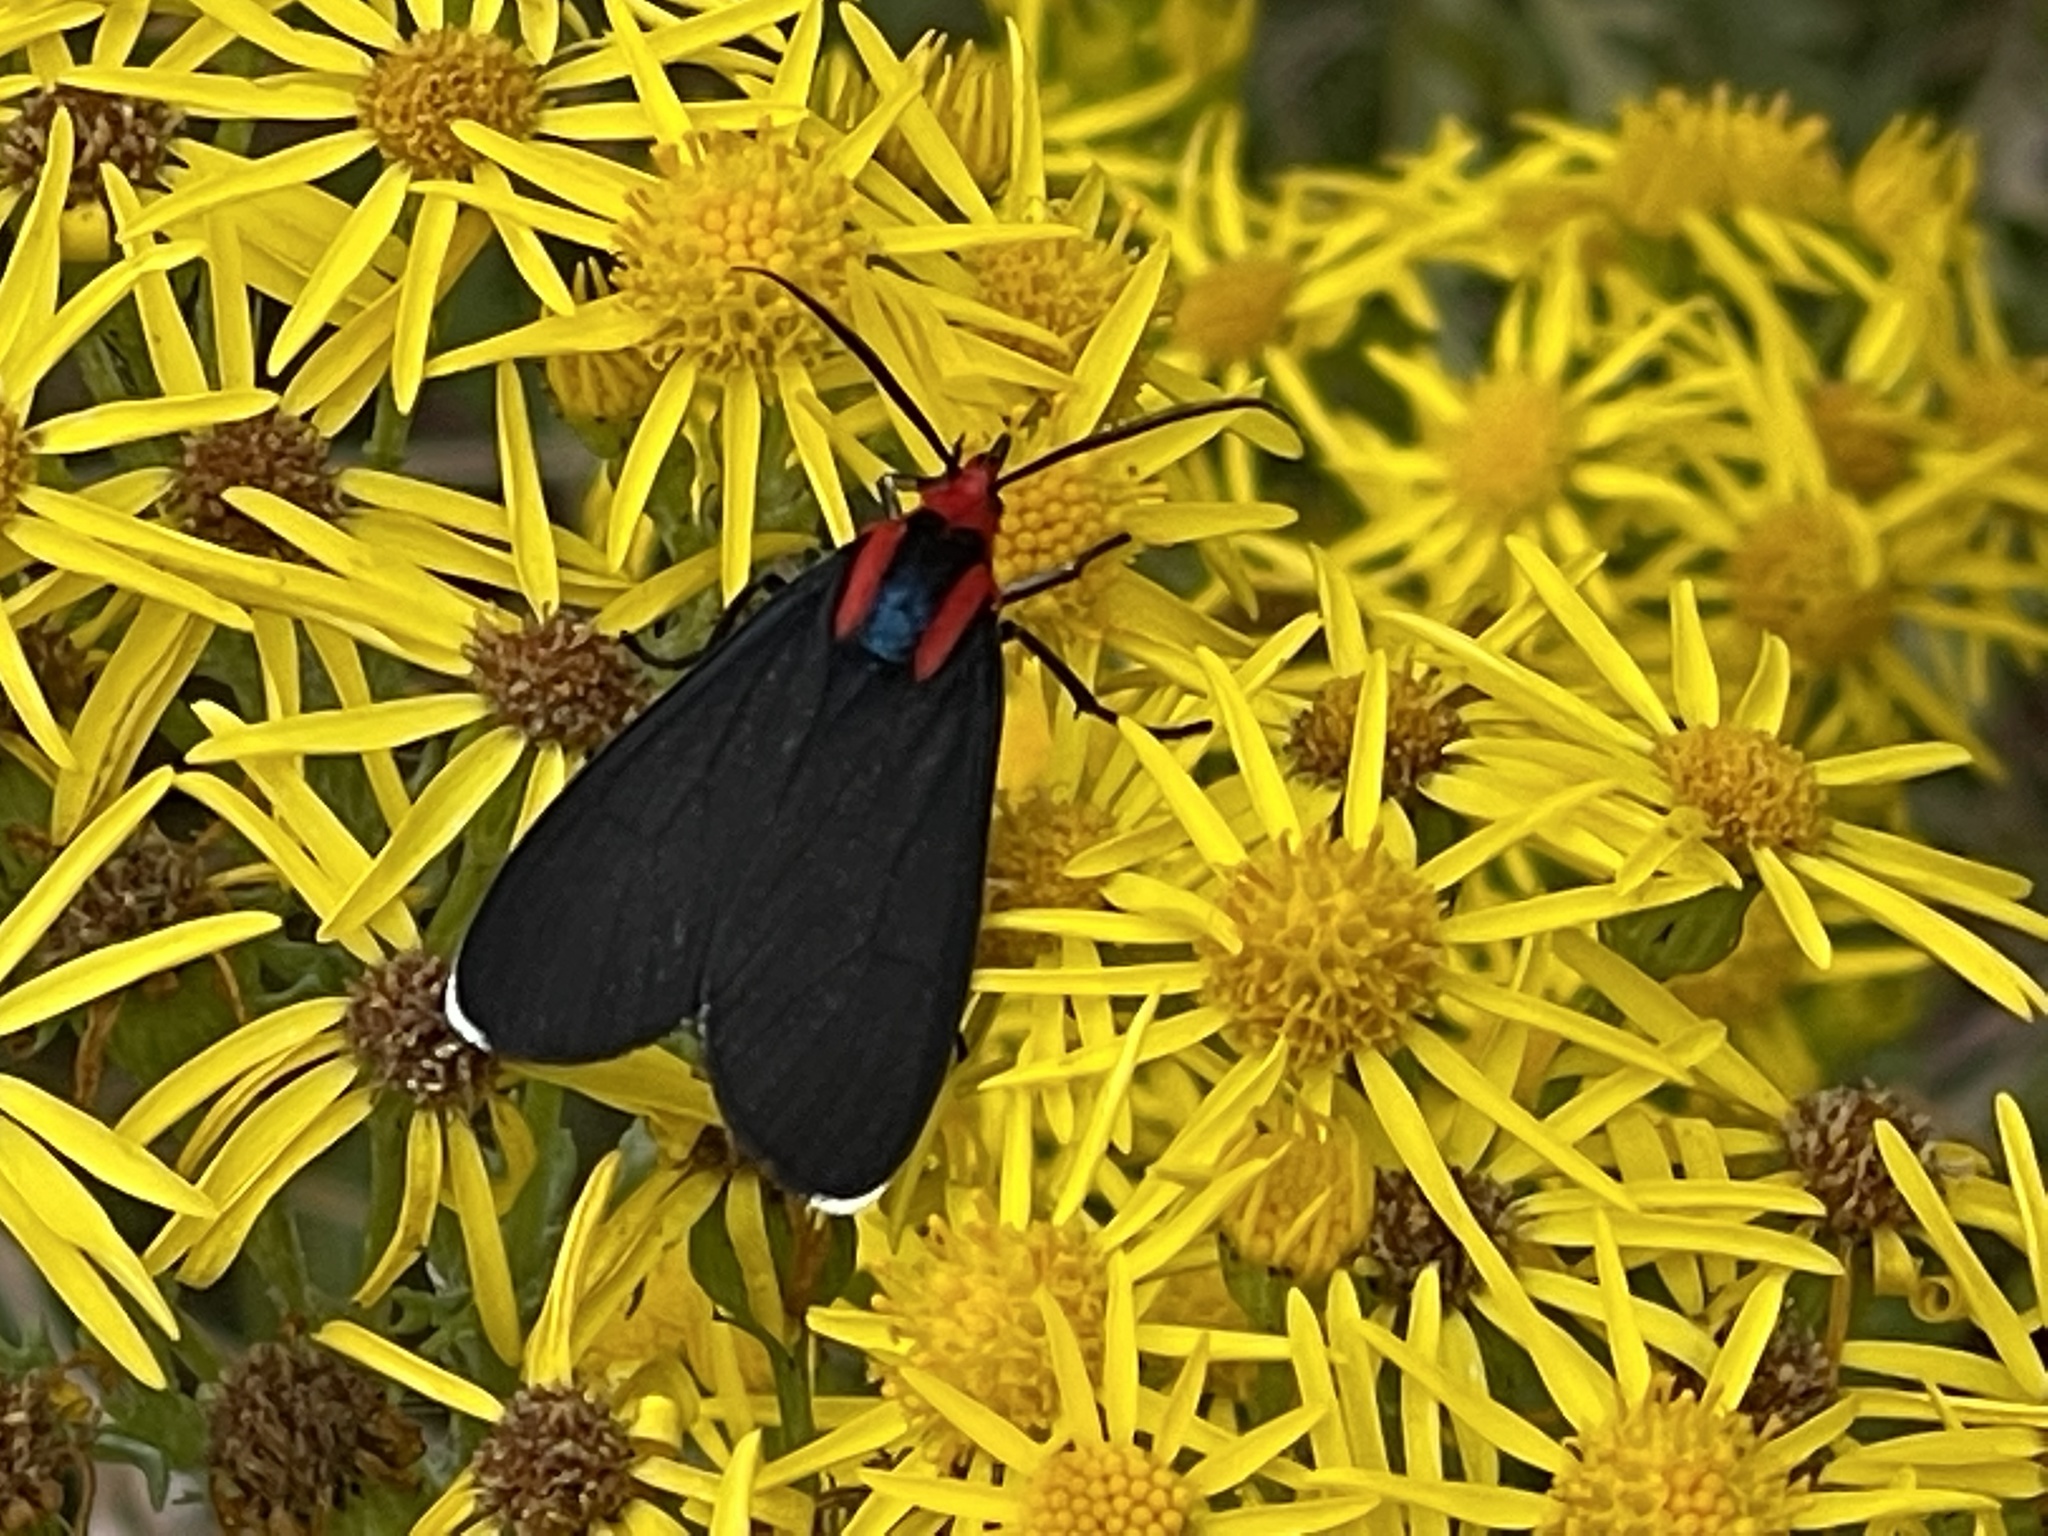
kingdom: Animalia
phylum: Arthropoda
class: Insecta
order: Lepidoptera
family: Erebidae
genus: Ctenucha
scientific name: Ctenucha rubroscapus
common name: Red-shouldered ctenucha
